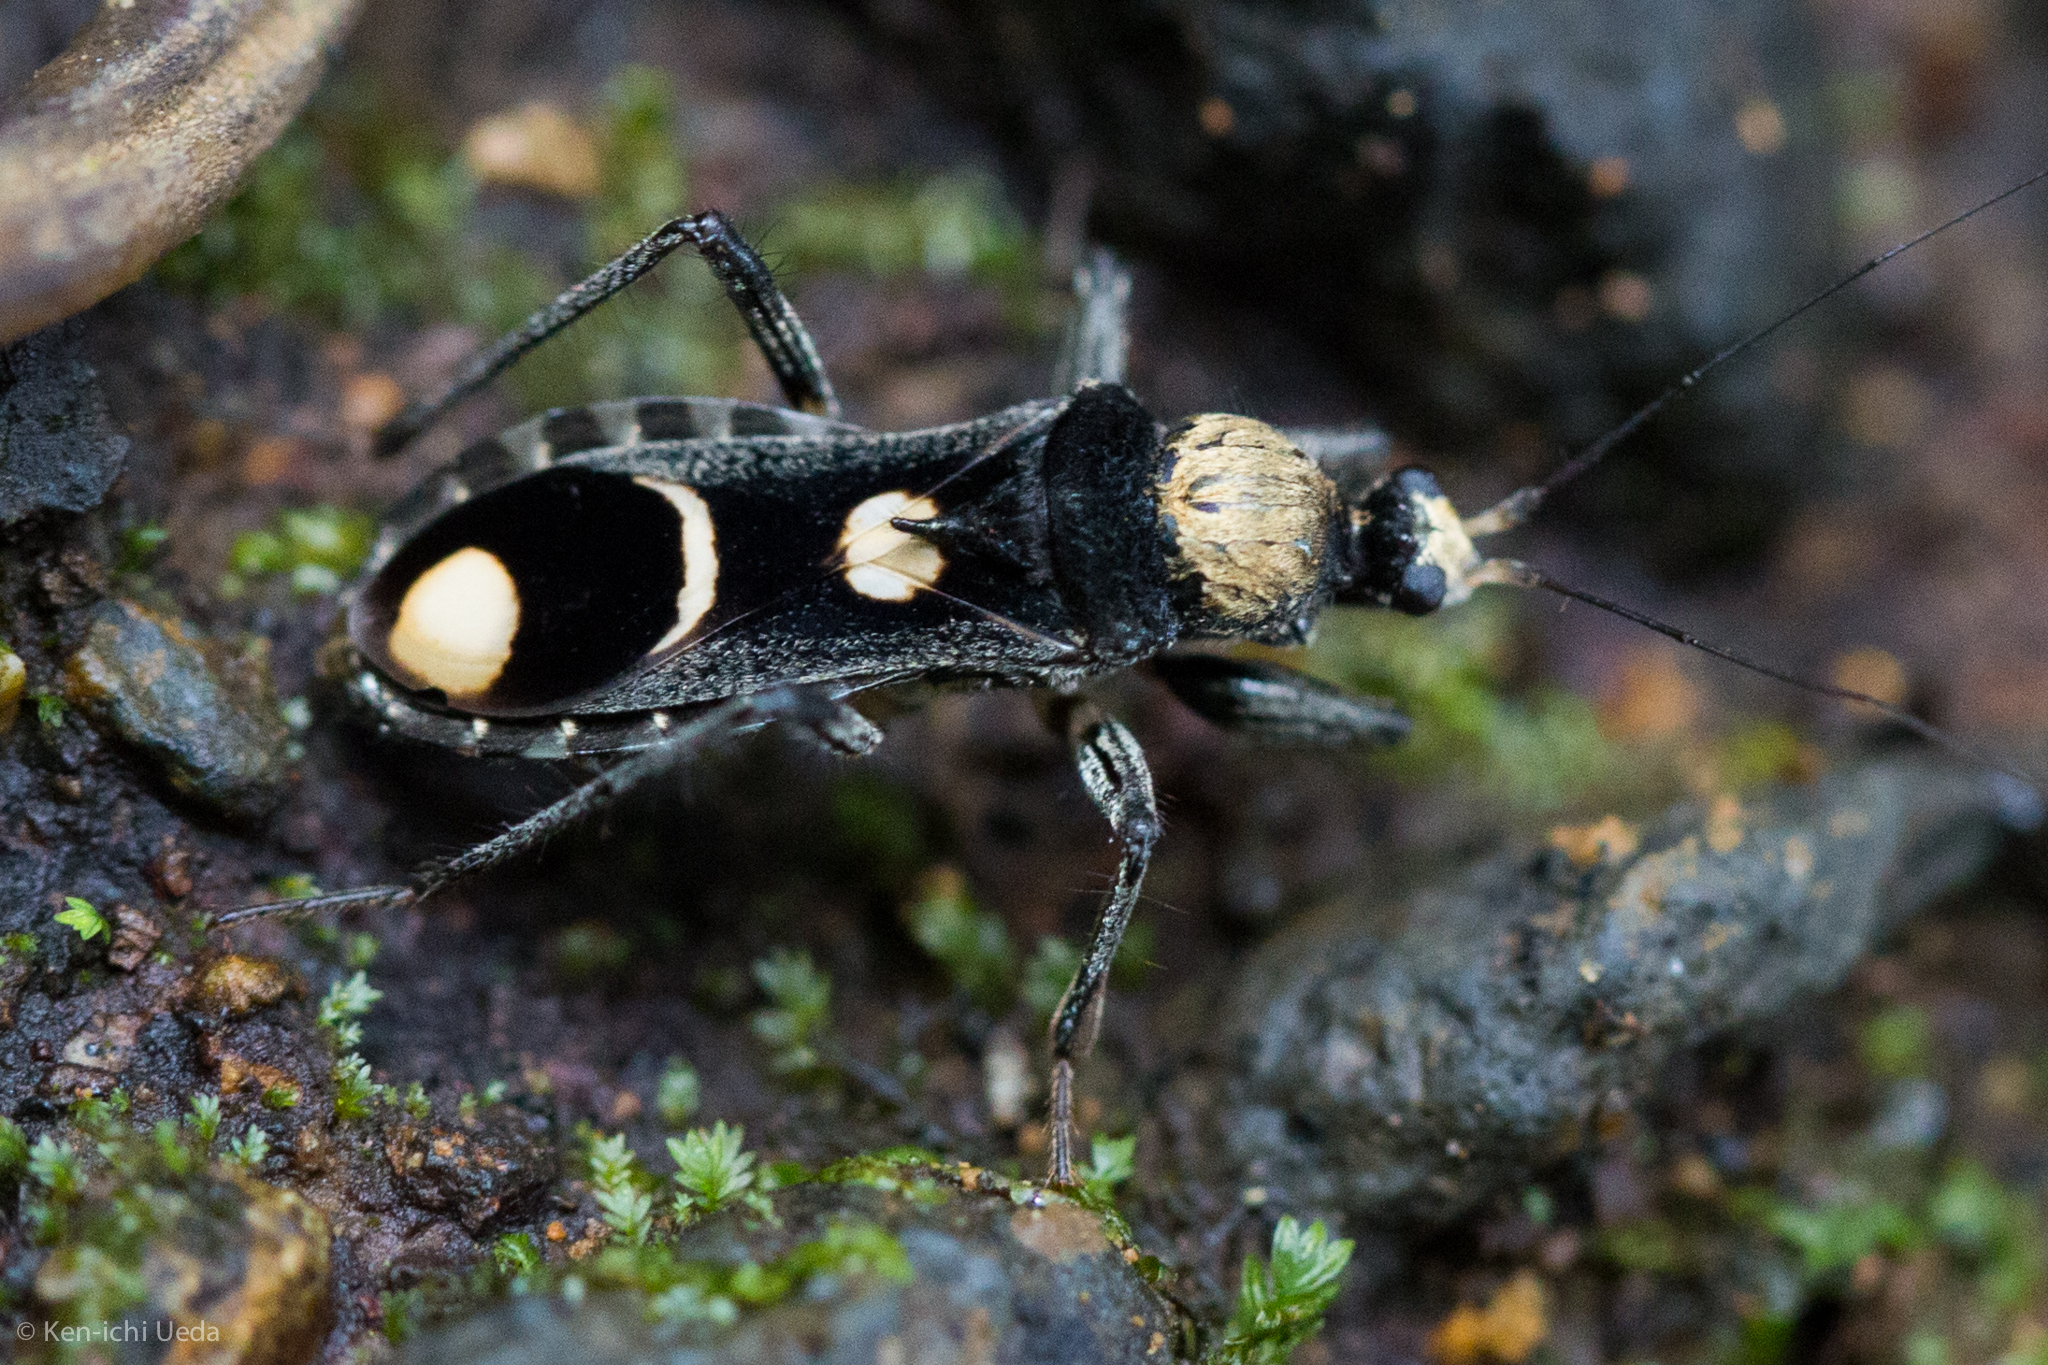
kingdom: Animalia
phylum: Arthropoda
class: Insecta
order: Hemiptera
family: Reduviidae
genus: Rasahus
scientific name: Rasahus arcuiger
